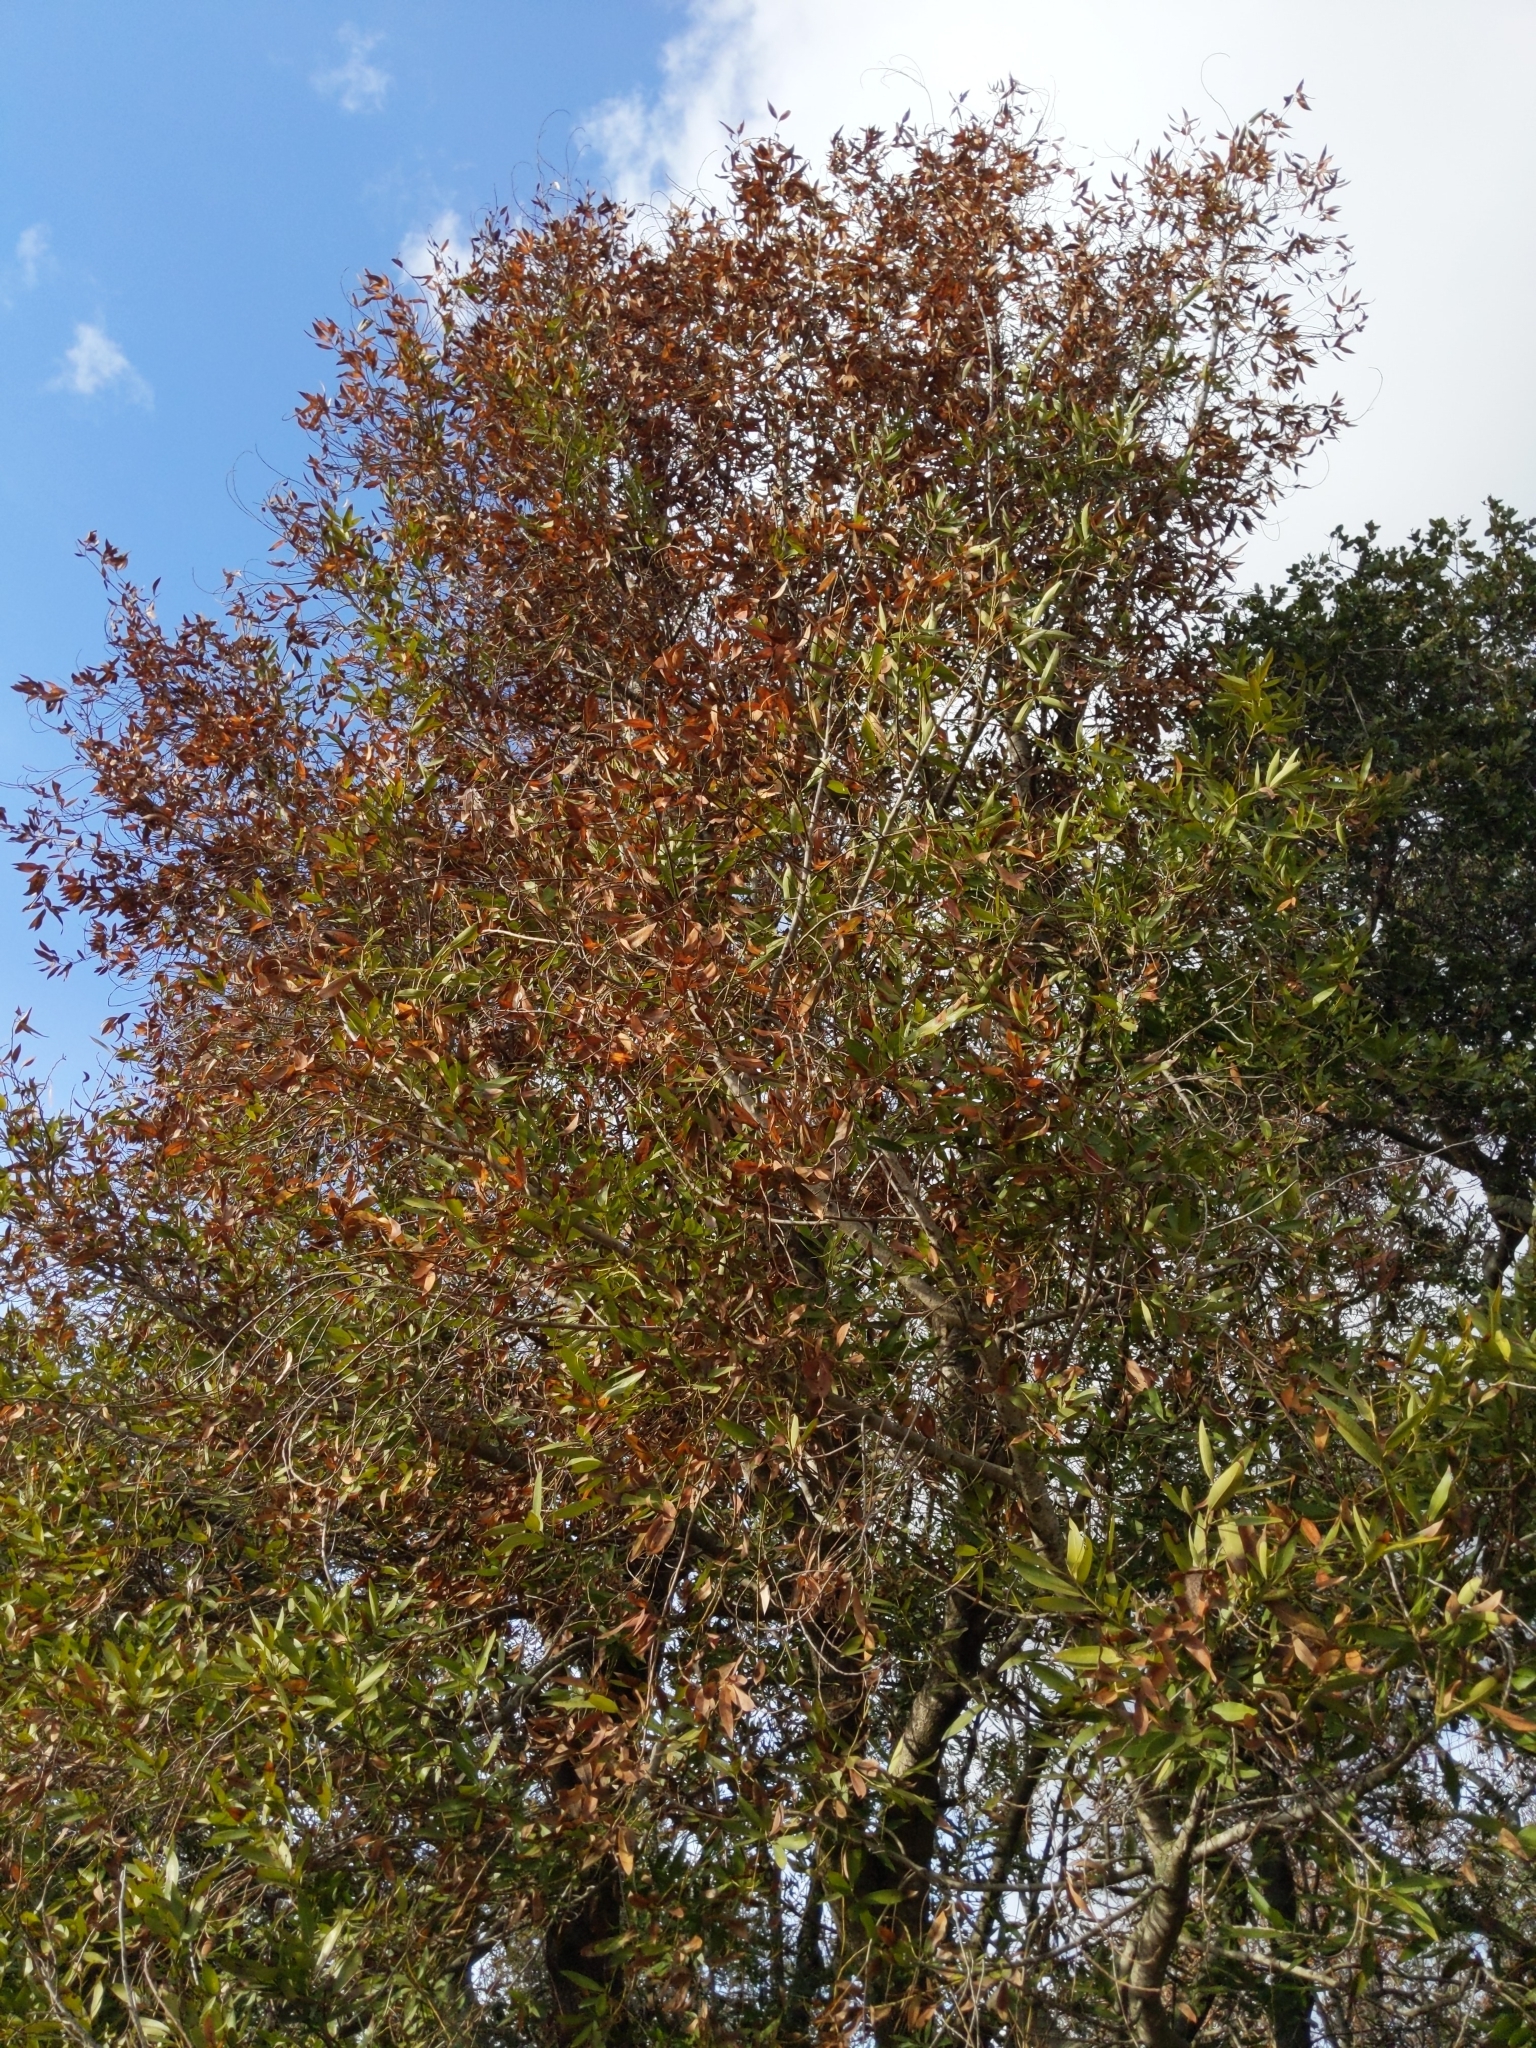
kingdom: Plantae
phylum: Tracheophyta
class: Magnoliopsida
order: Laurales
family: Lauraceae
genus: Umbellularia
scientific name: Umbellularia californica
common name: California bay
